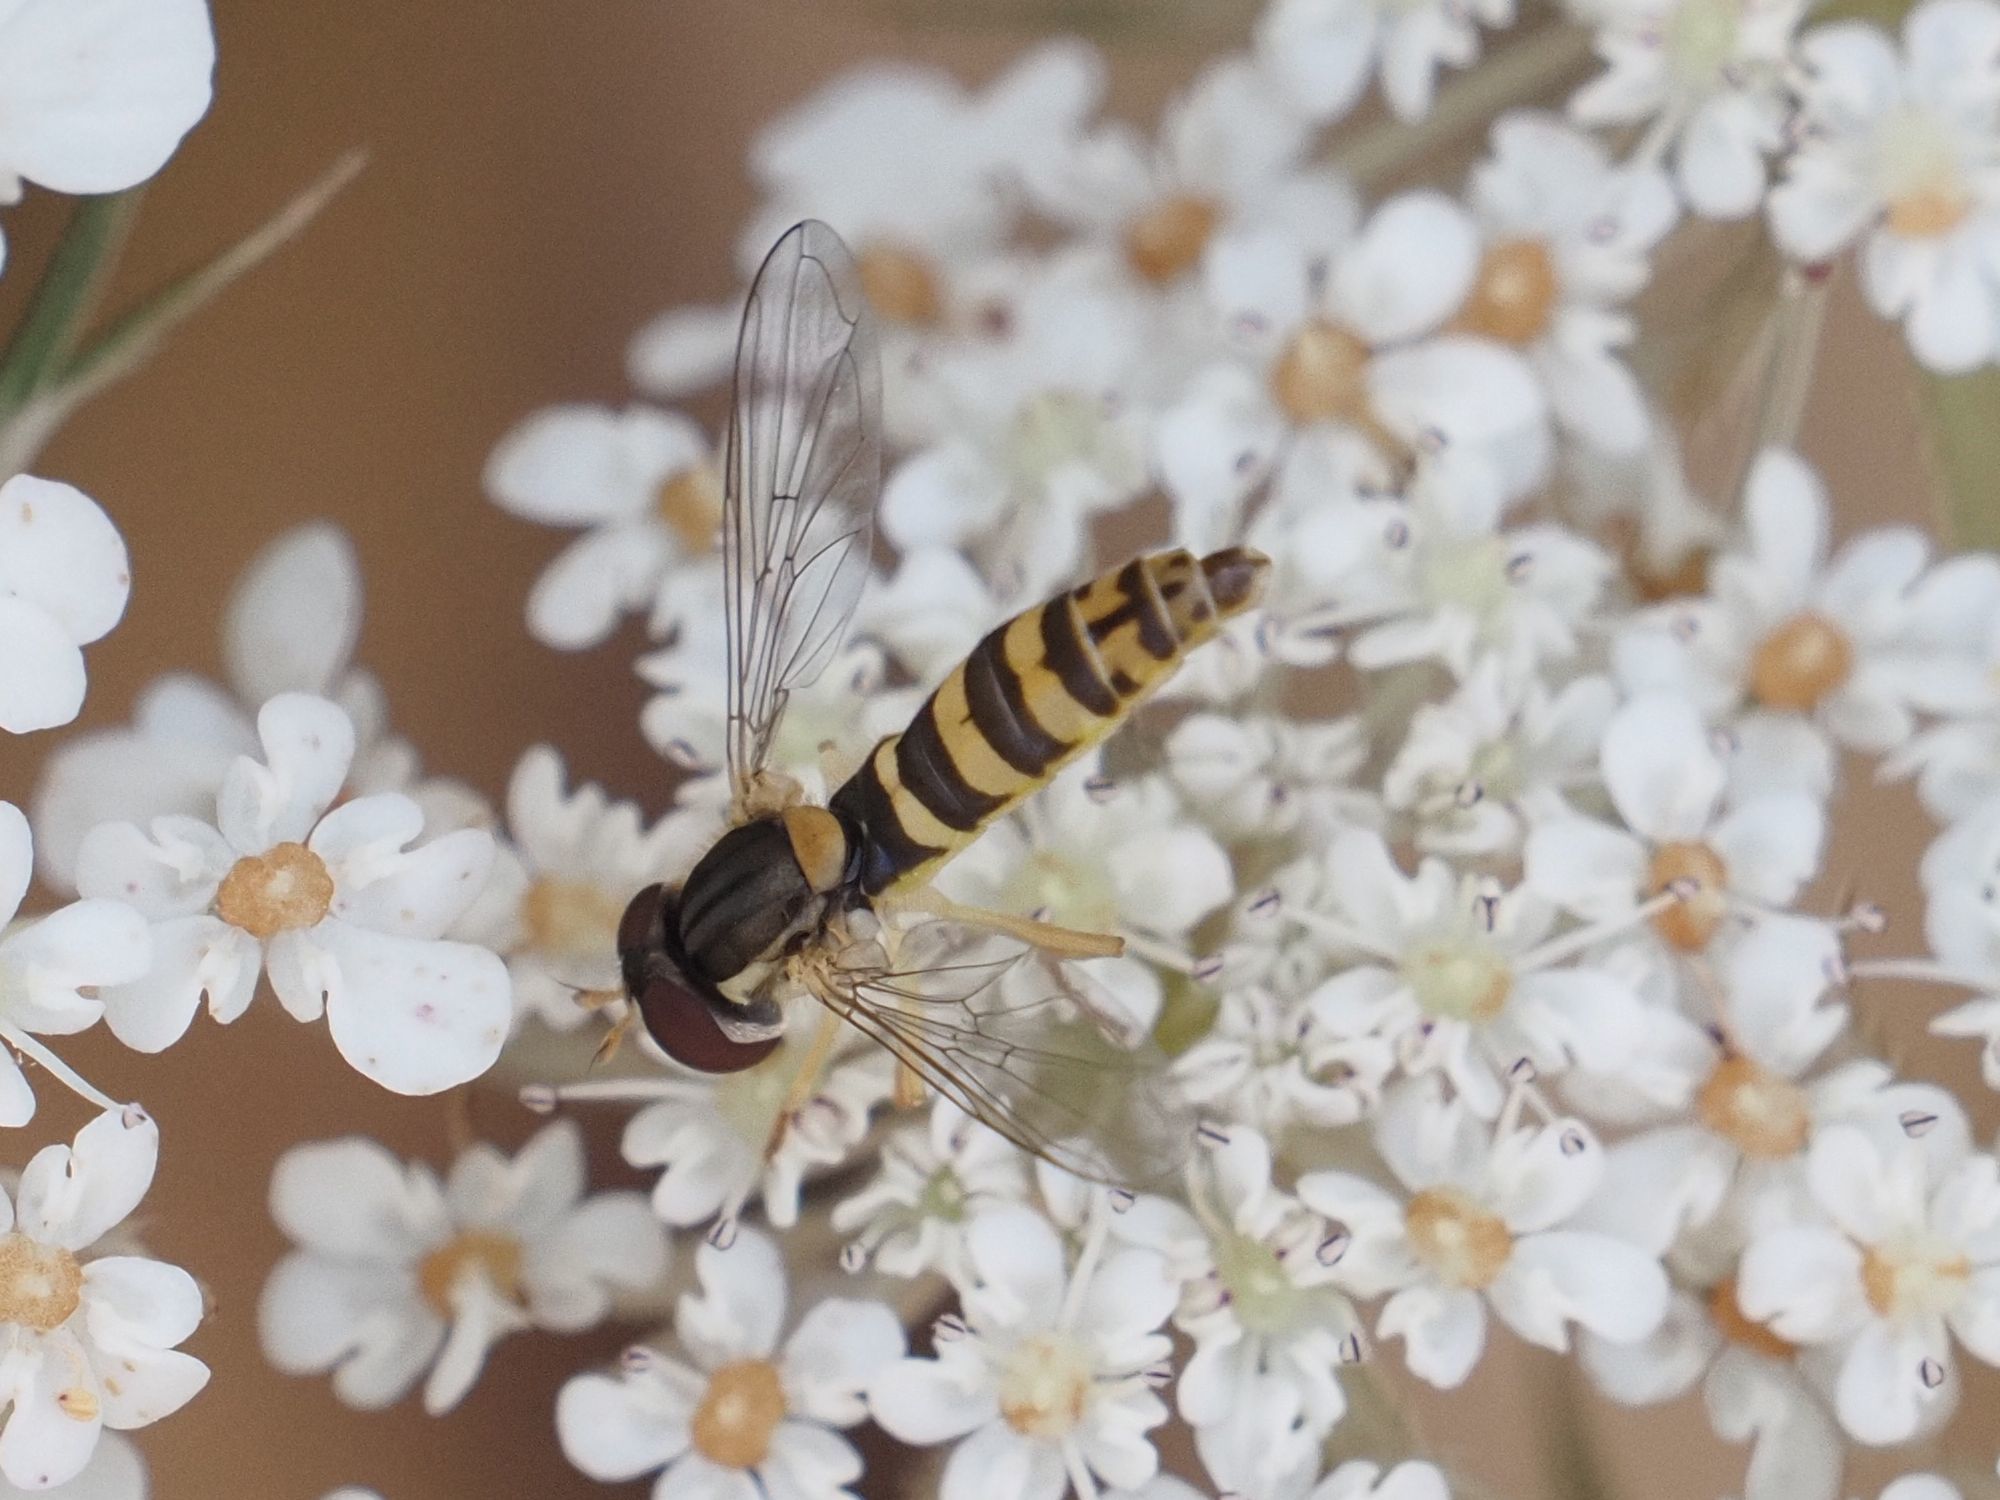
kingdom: Animalia
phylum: Arthropoda
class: Insecta
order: Diptera
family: Syrphidae
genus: Sphaerophoria
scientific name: Sphaerophoria
